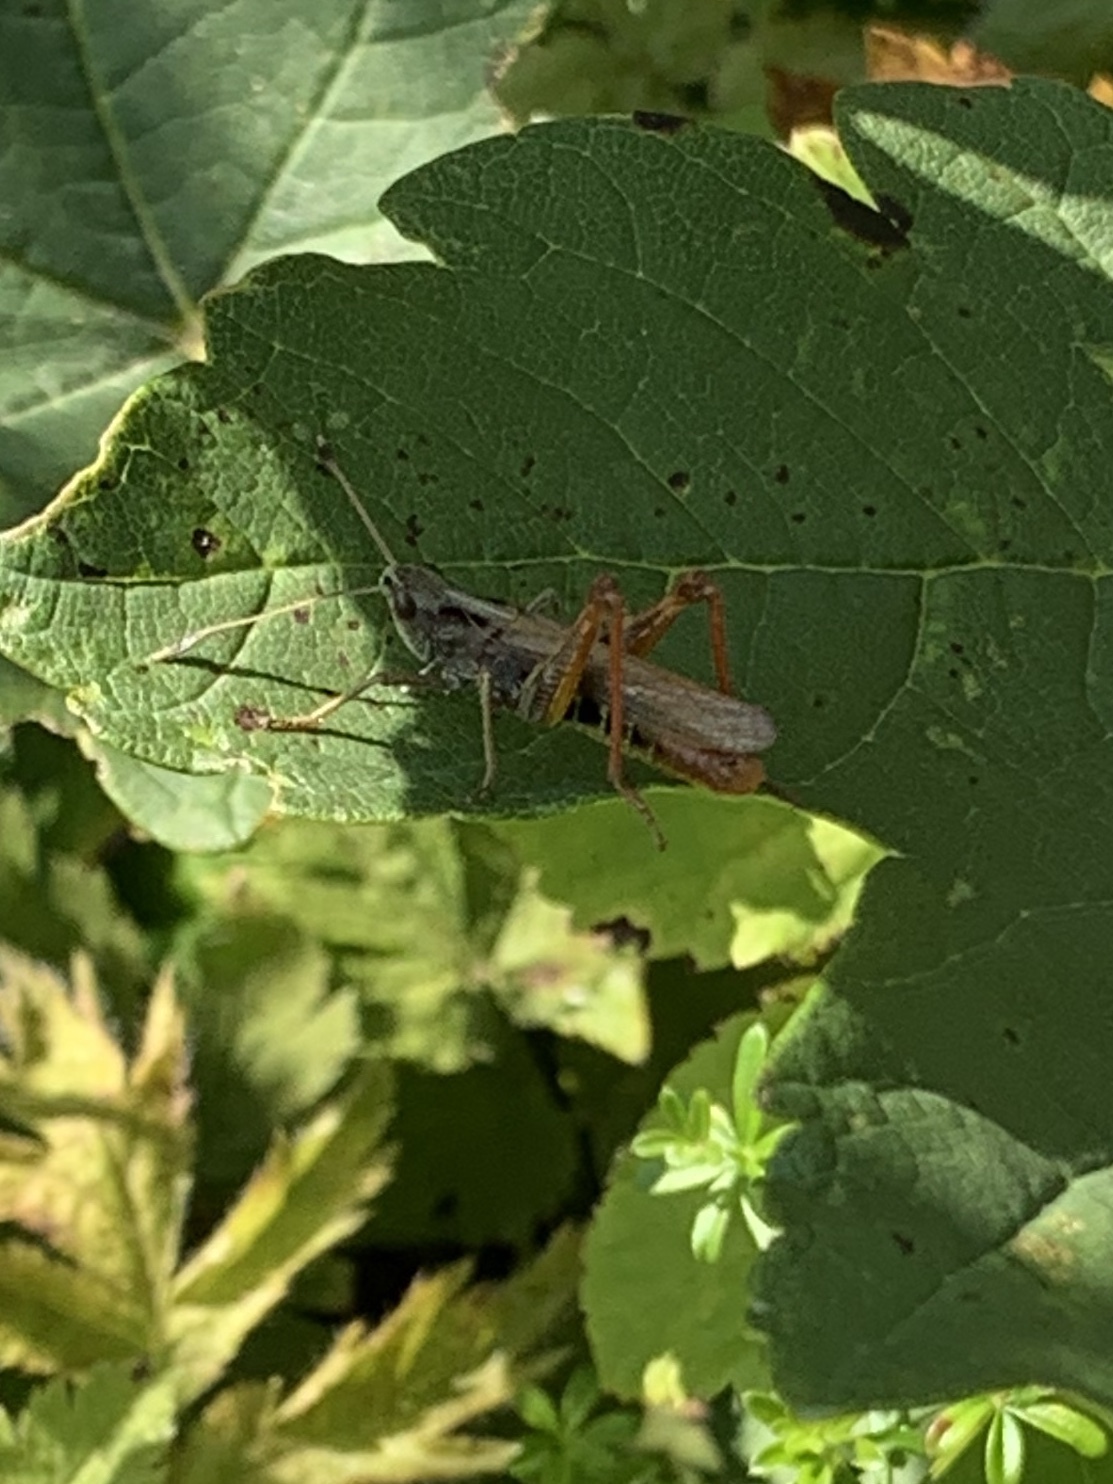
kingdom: Animalia
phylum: Arthropoda
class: Insecta
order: Orthoptera
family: Acrididae
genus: Gomphocerippus
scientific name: Gomphocerippus rufus
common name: Rufous grasshopper
